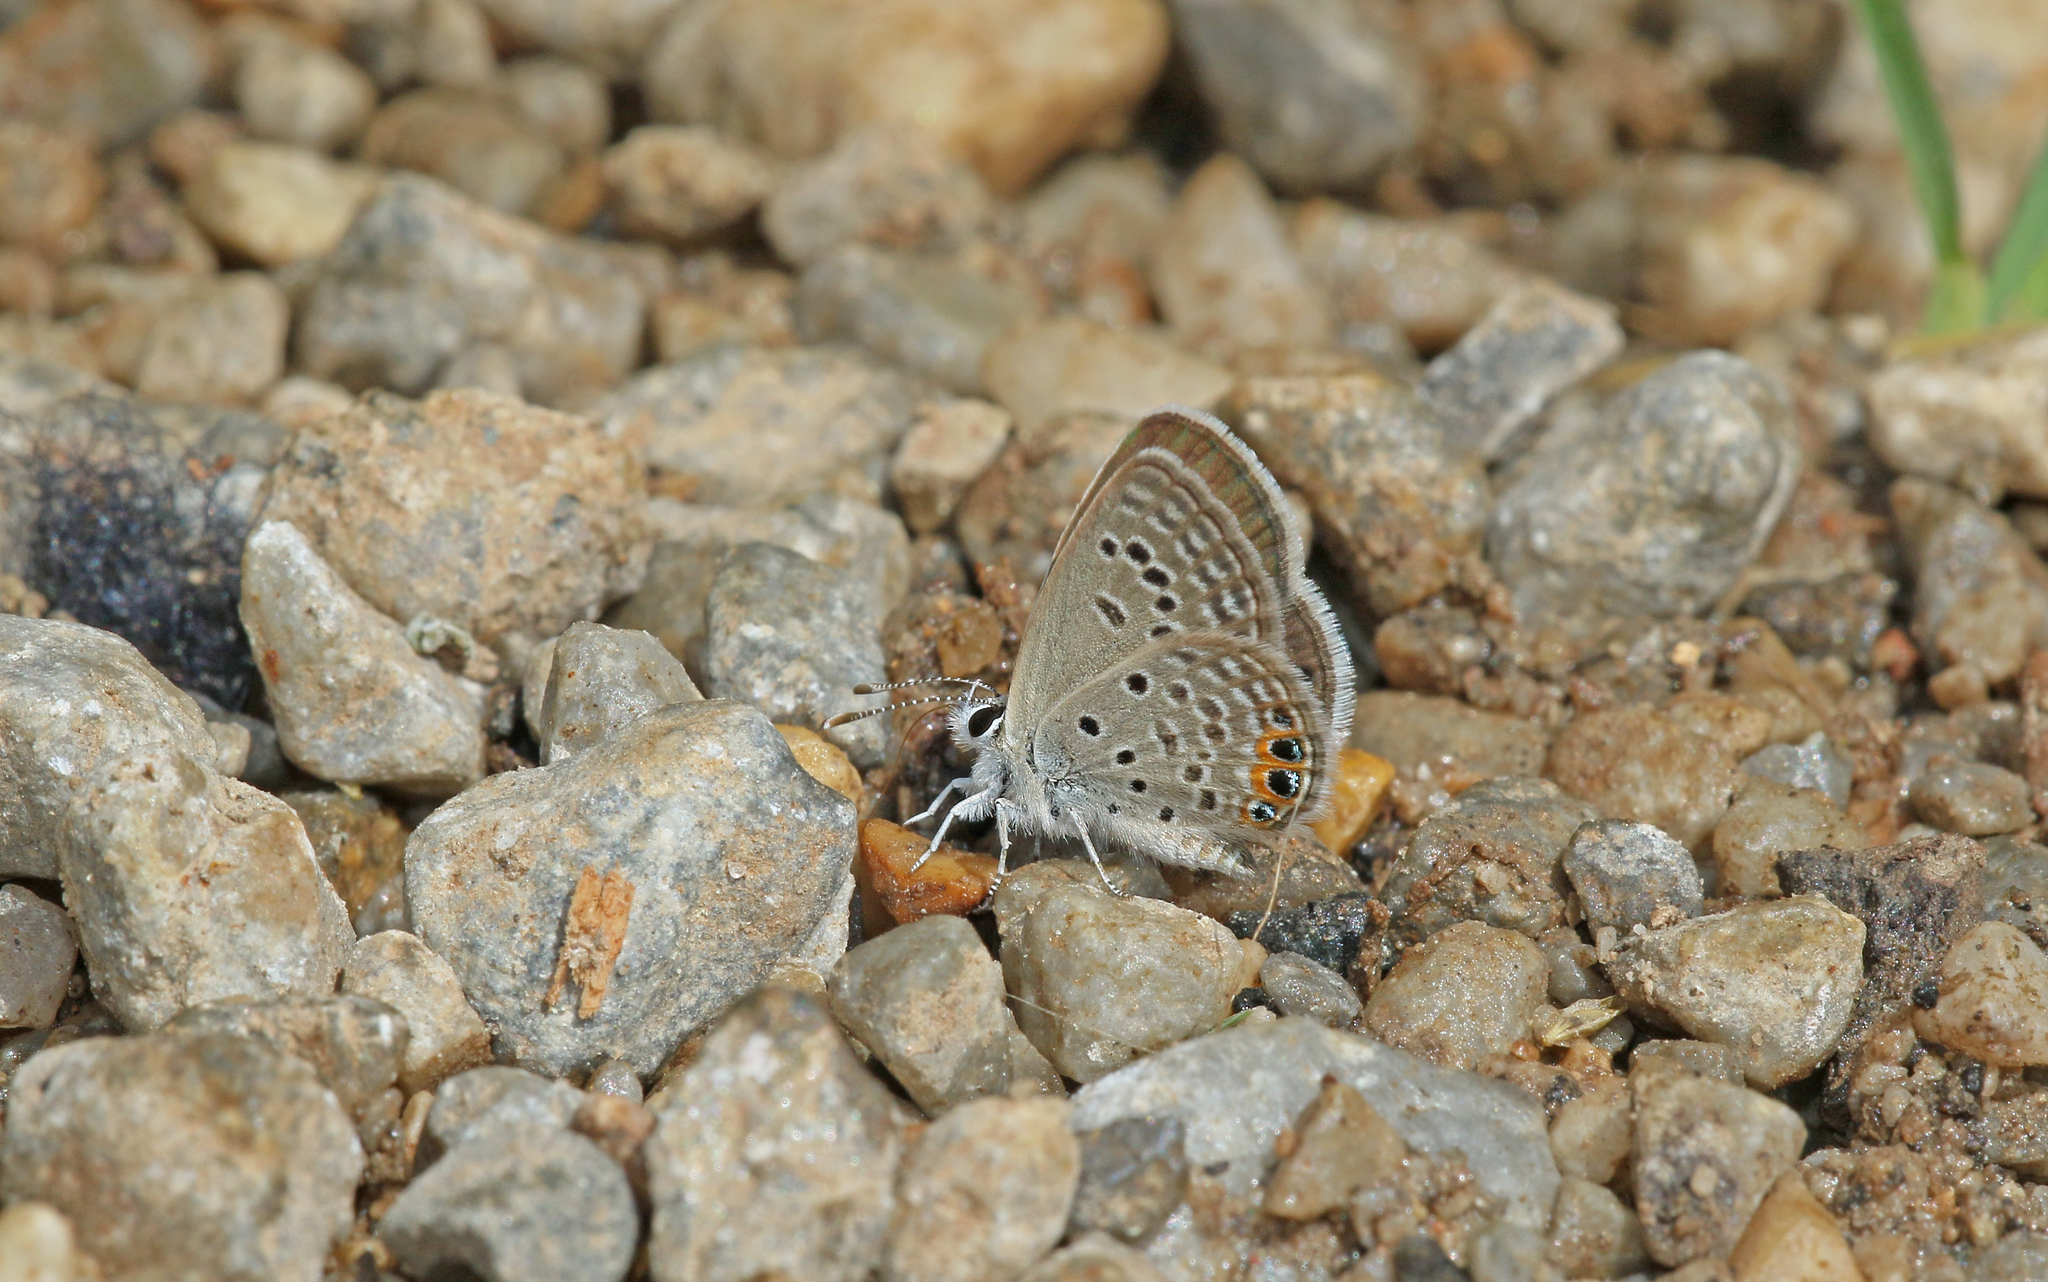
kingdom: Animalia
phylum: Arthropoda
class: Insecta
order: Lepidoptera
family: Lycaenidae
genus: Freyeria
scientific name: Freyeria trochylus
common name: Grass jewel
